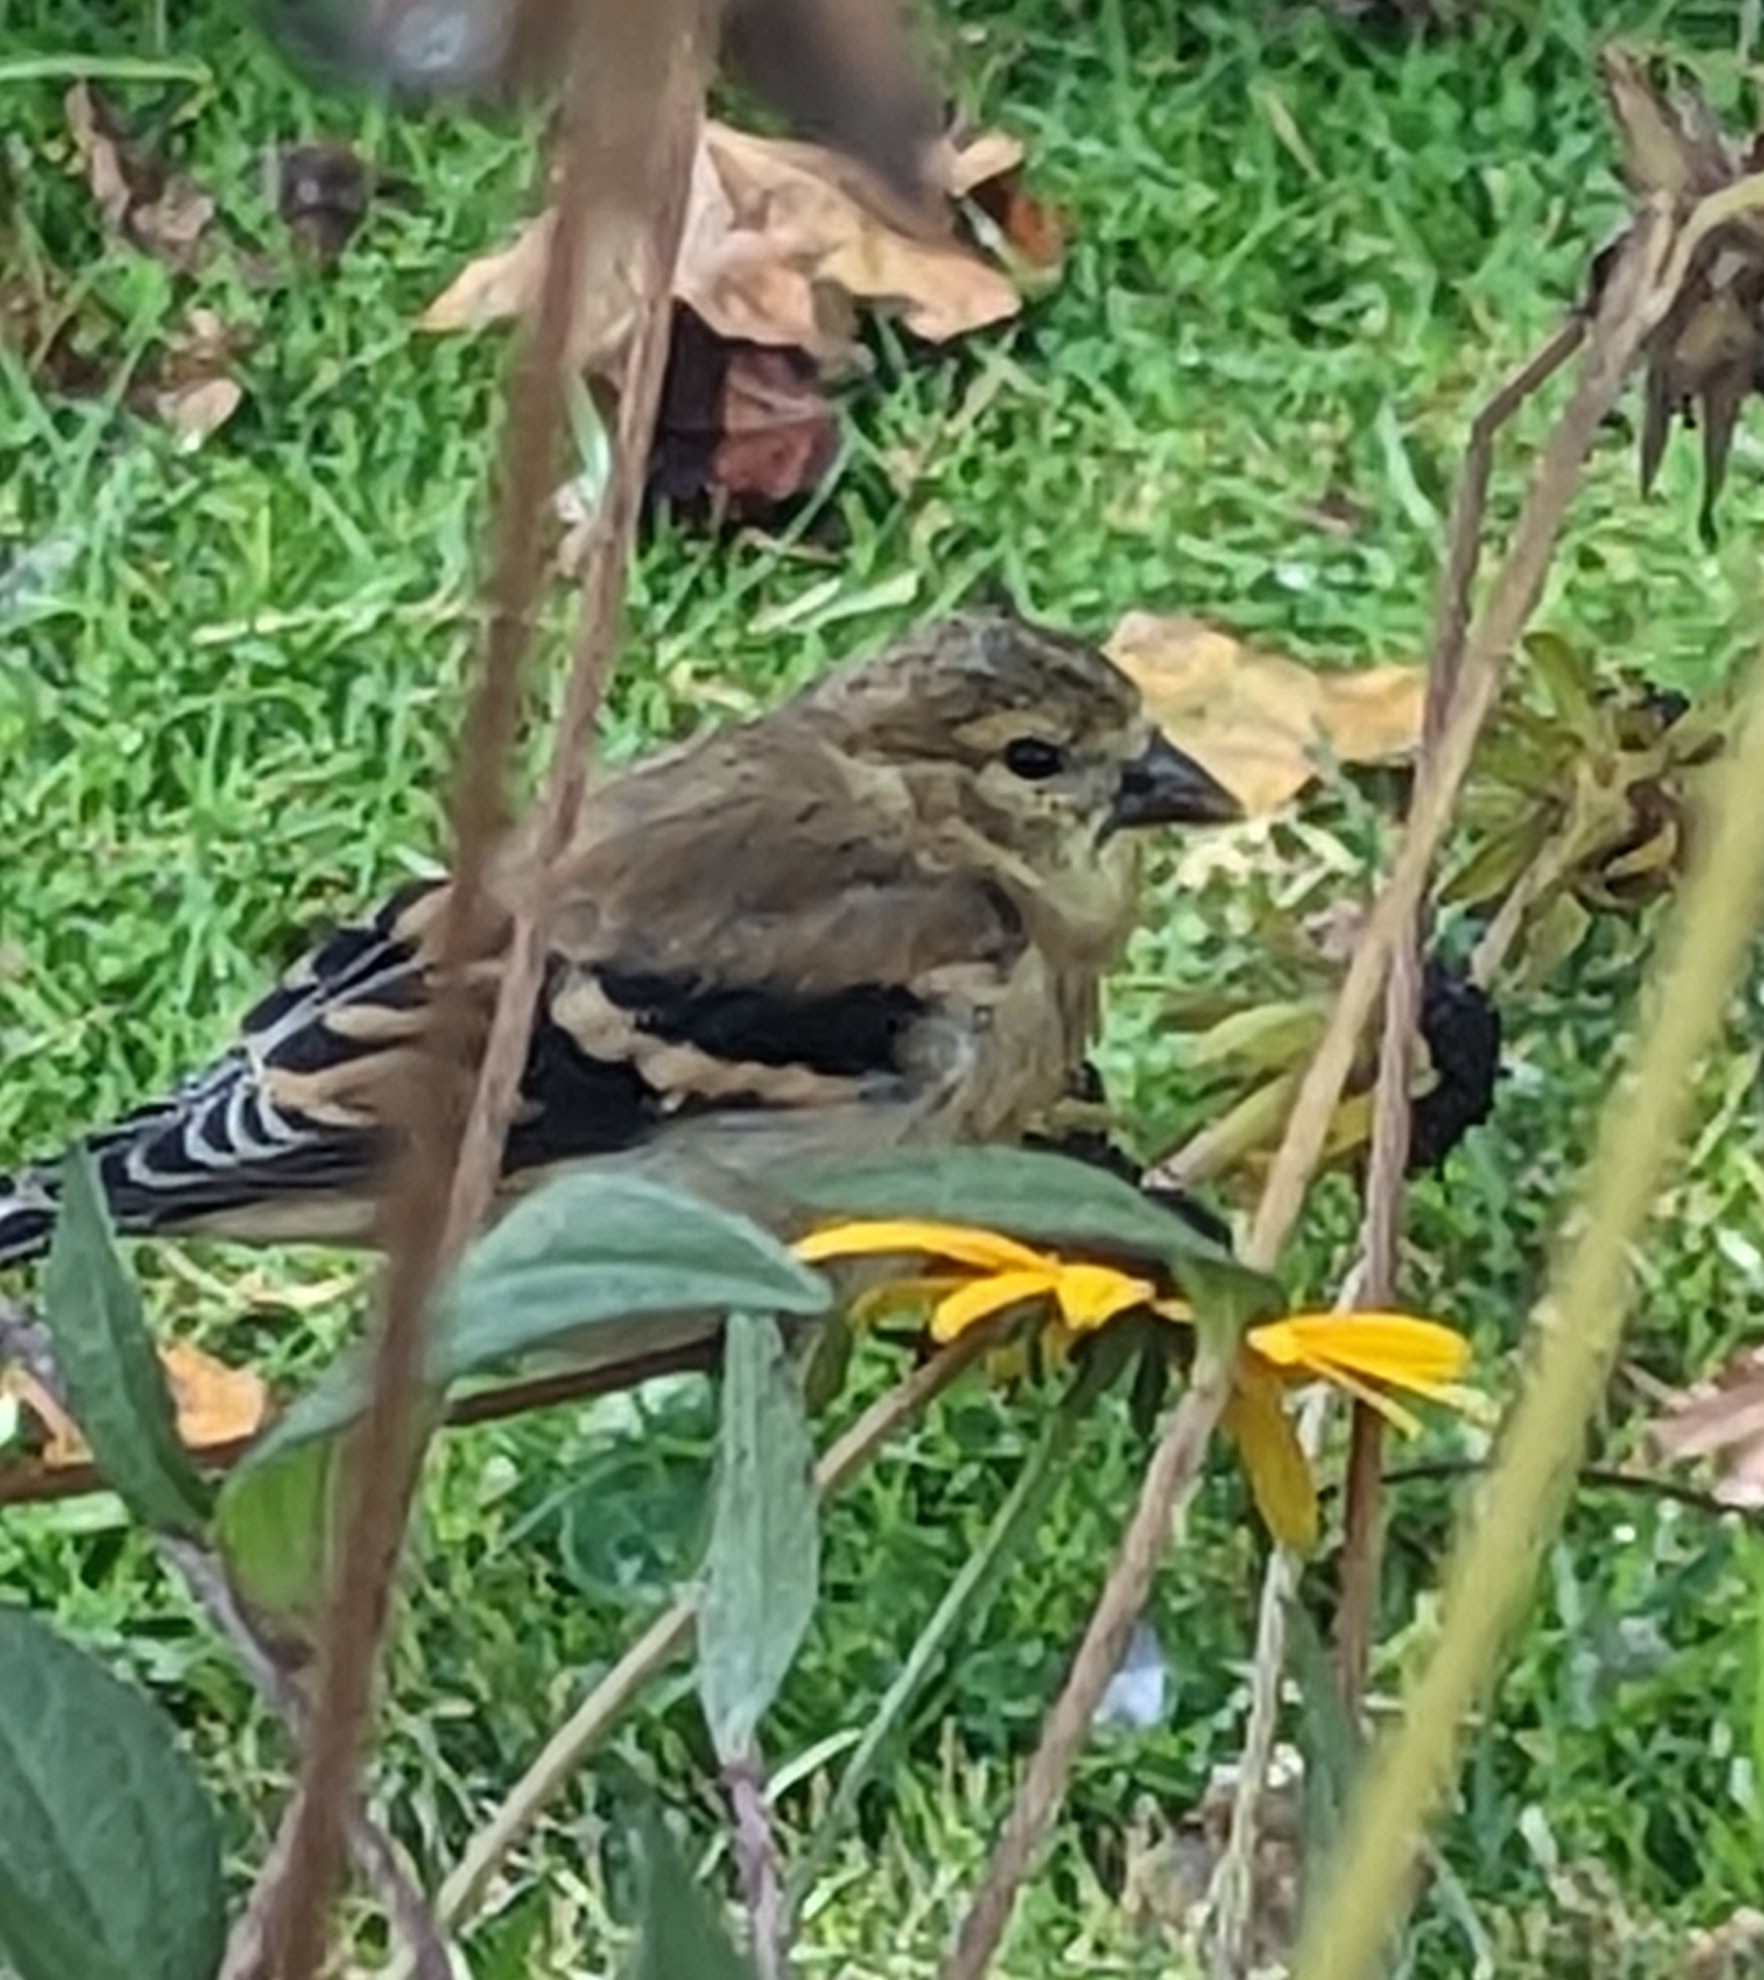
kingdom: Animalia
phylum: Chordata
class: Aves
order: Passeriformes
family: Fringillidae
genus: Spinus
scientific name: Spinus tristis
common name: American goldfinch
